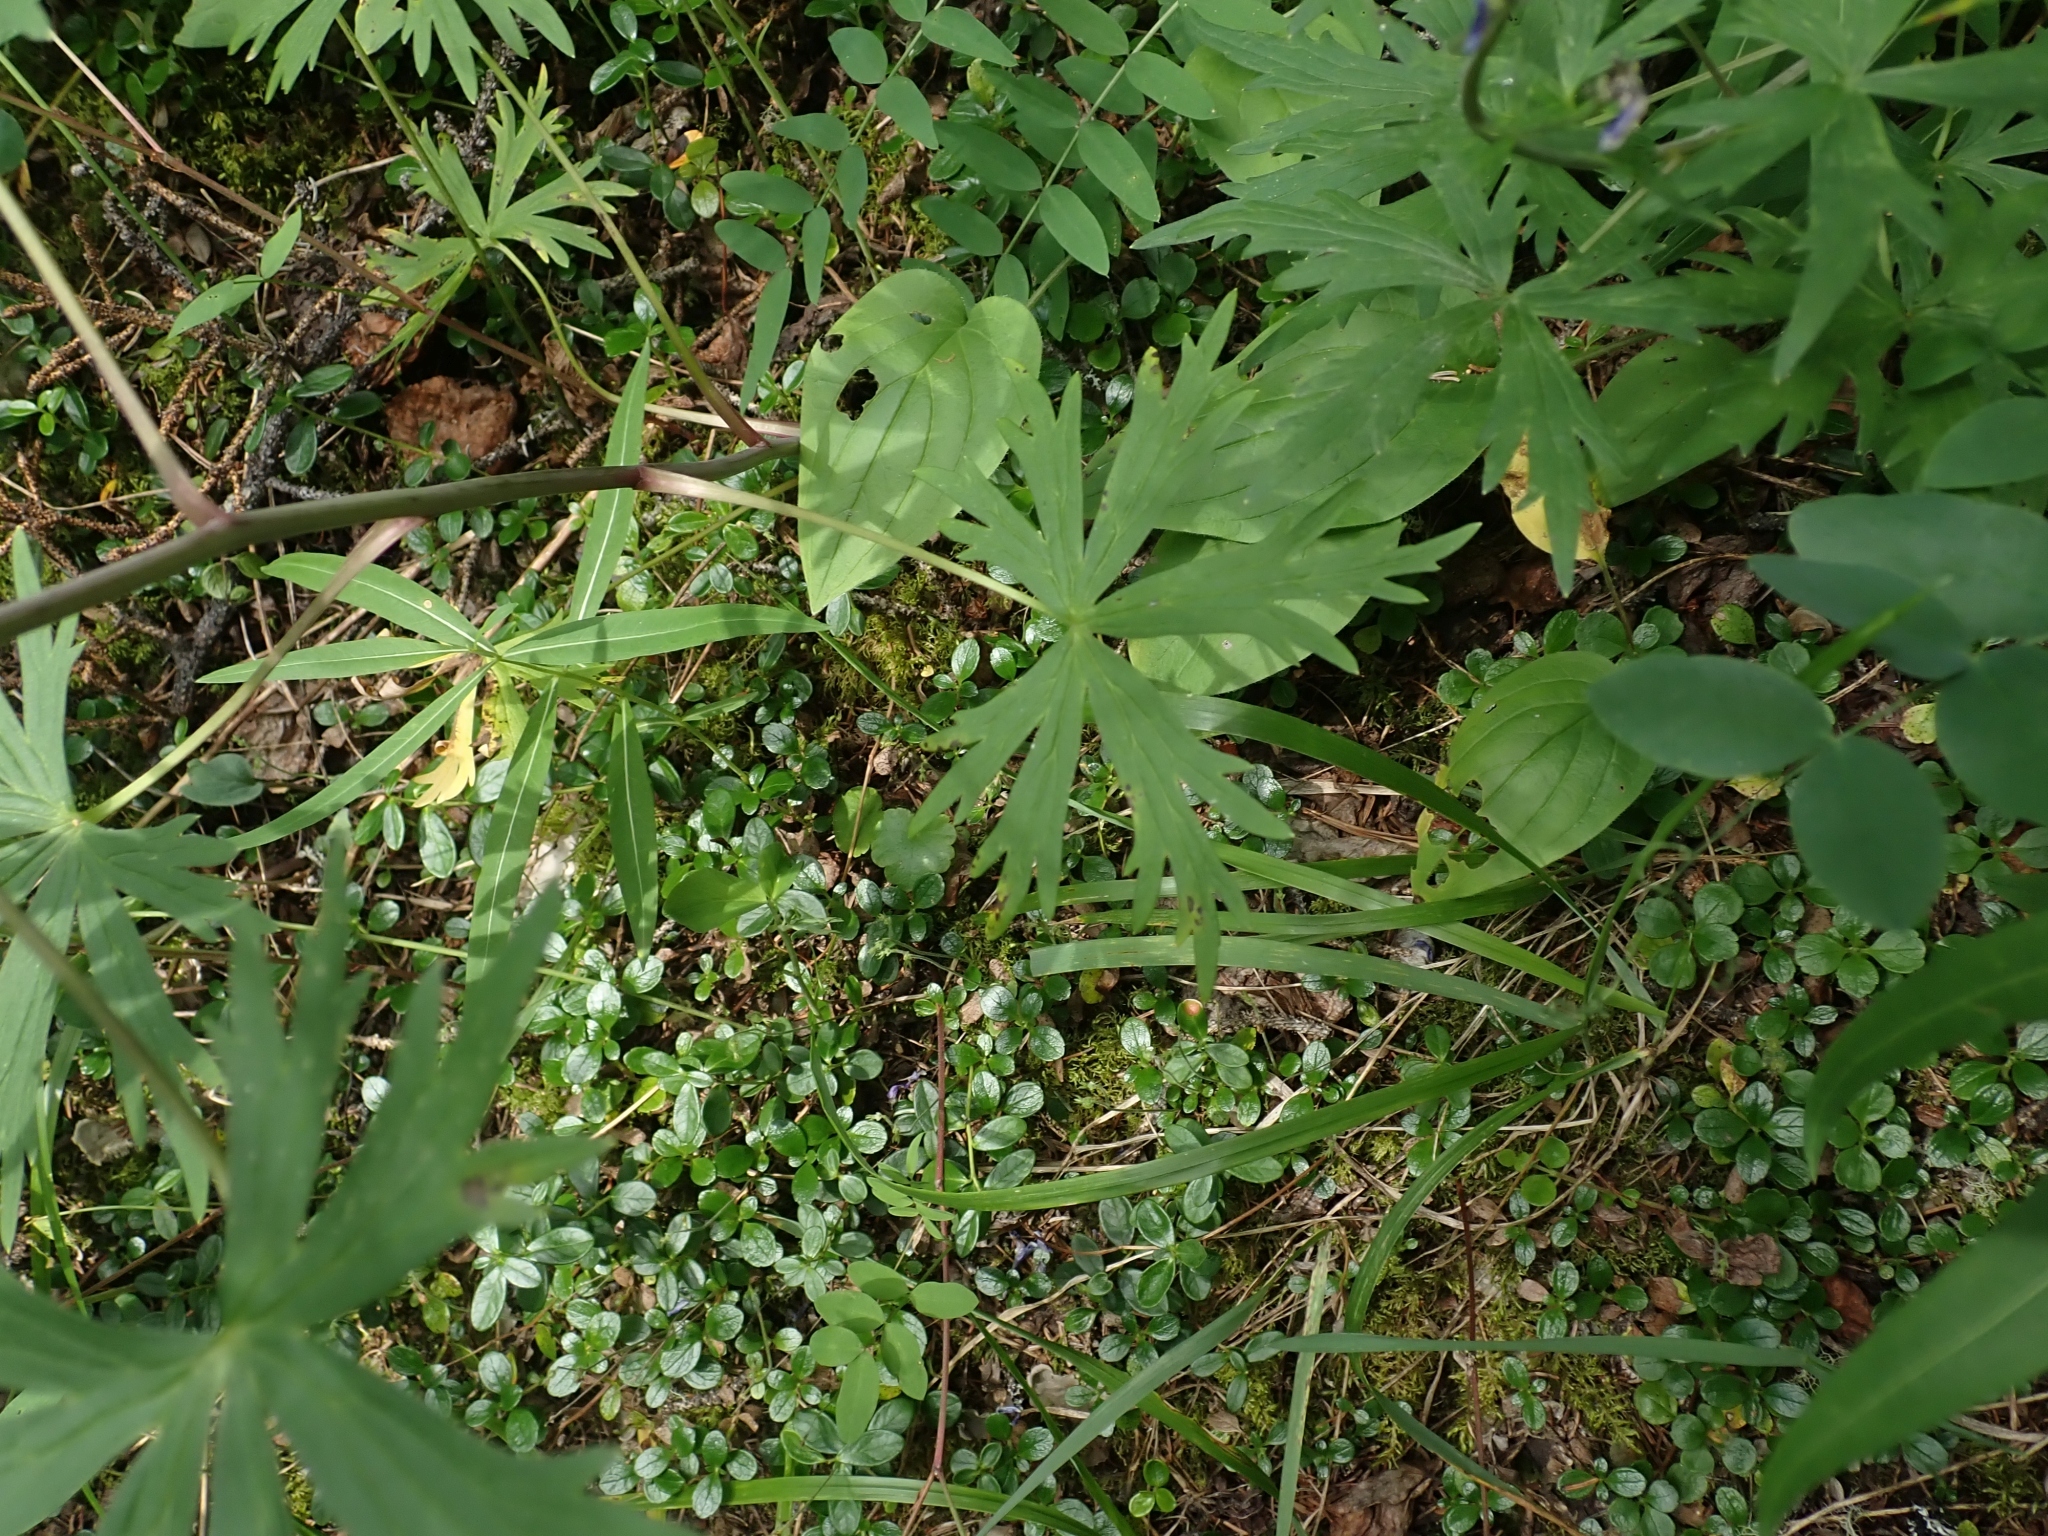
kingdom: Plantae
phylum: Tracheophyta
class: Magnoliopsida
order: Ranunculales
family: Ranunculaceae
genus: Delphinium
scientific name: Delphinium glaucum
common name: Brown's larkspur
